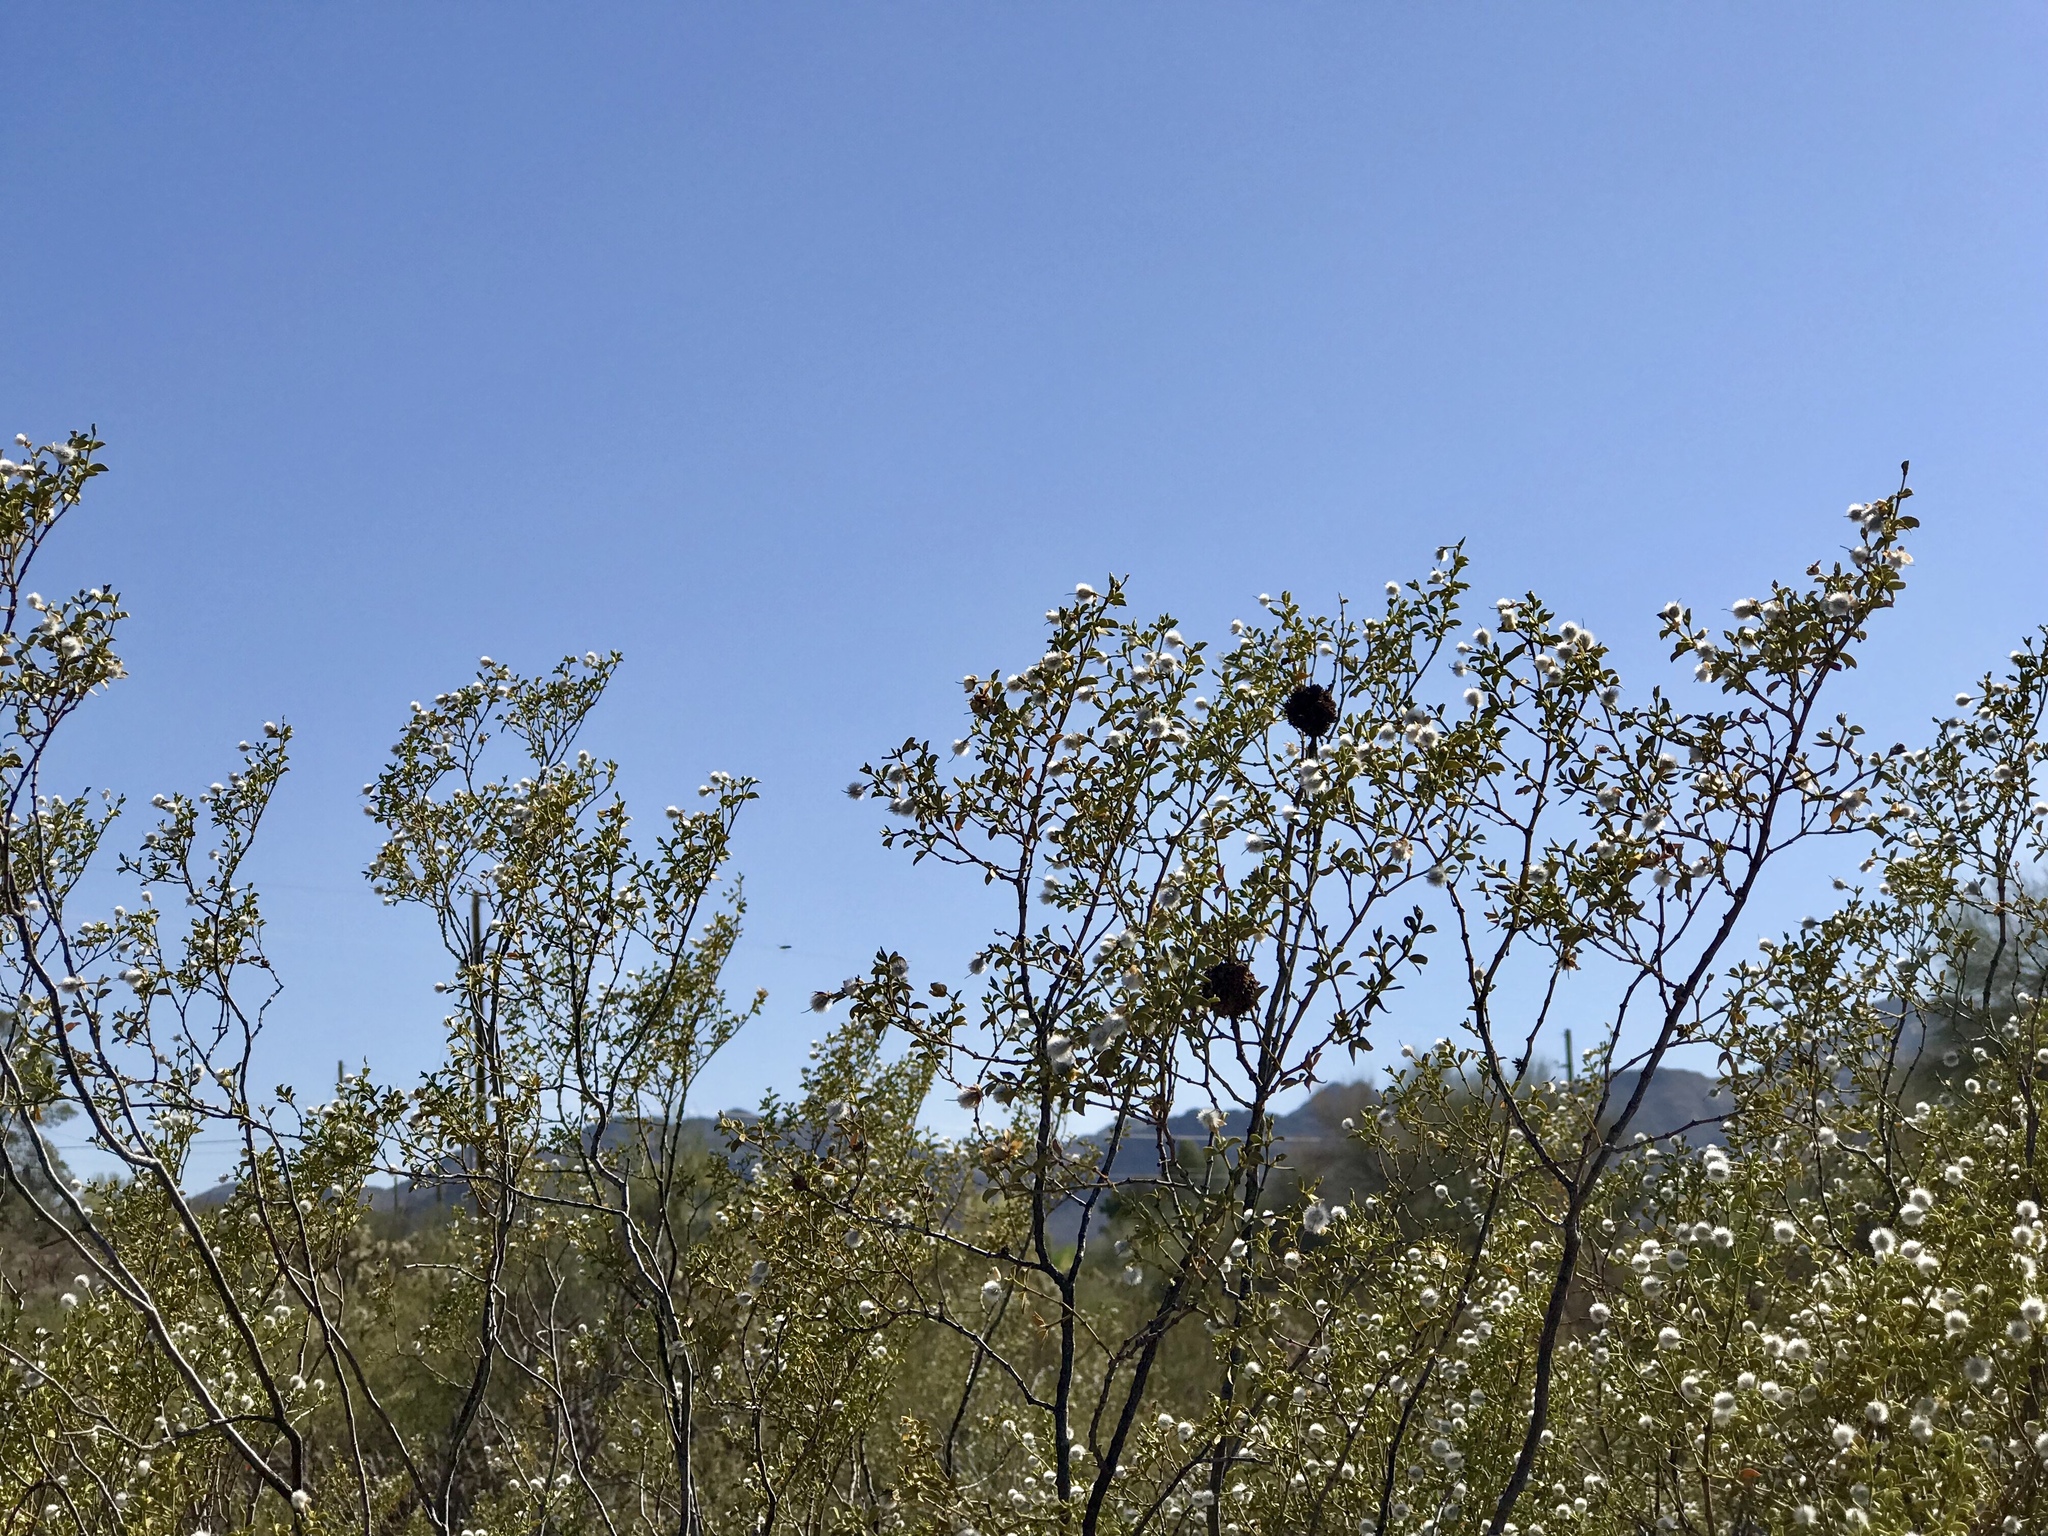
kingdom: Animalia
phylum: Arthropoda
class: Insecta
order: Diptera
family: Cecidomyiidae
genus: Asphondylia
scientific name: Asphondylia auripila
